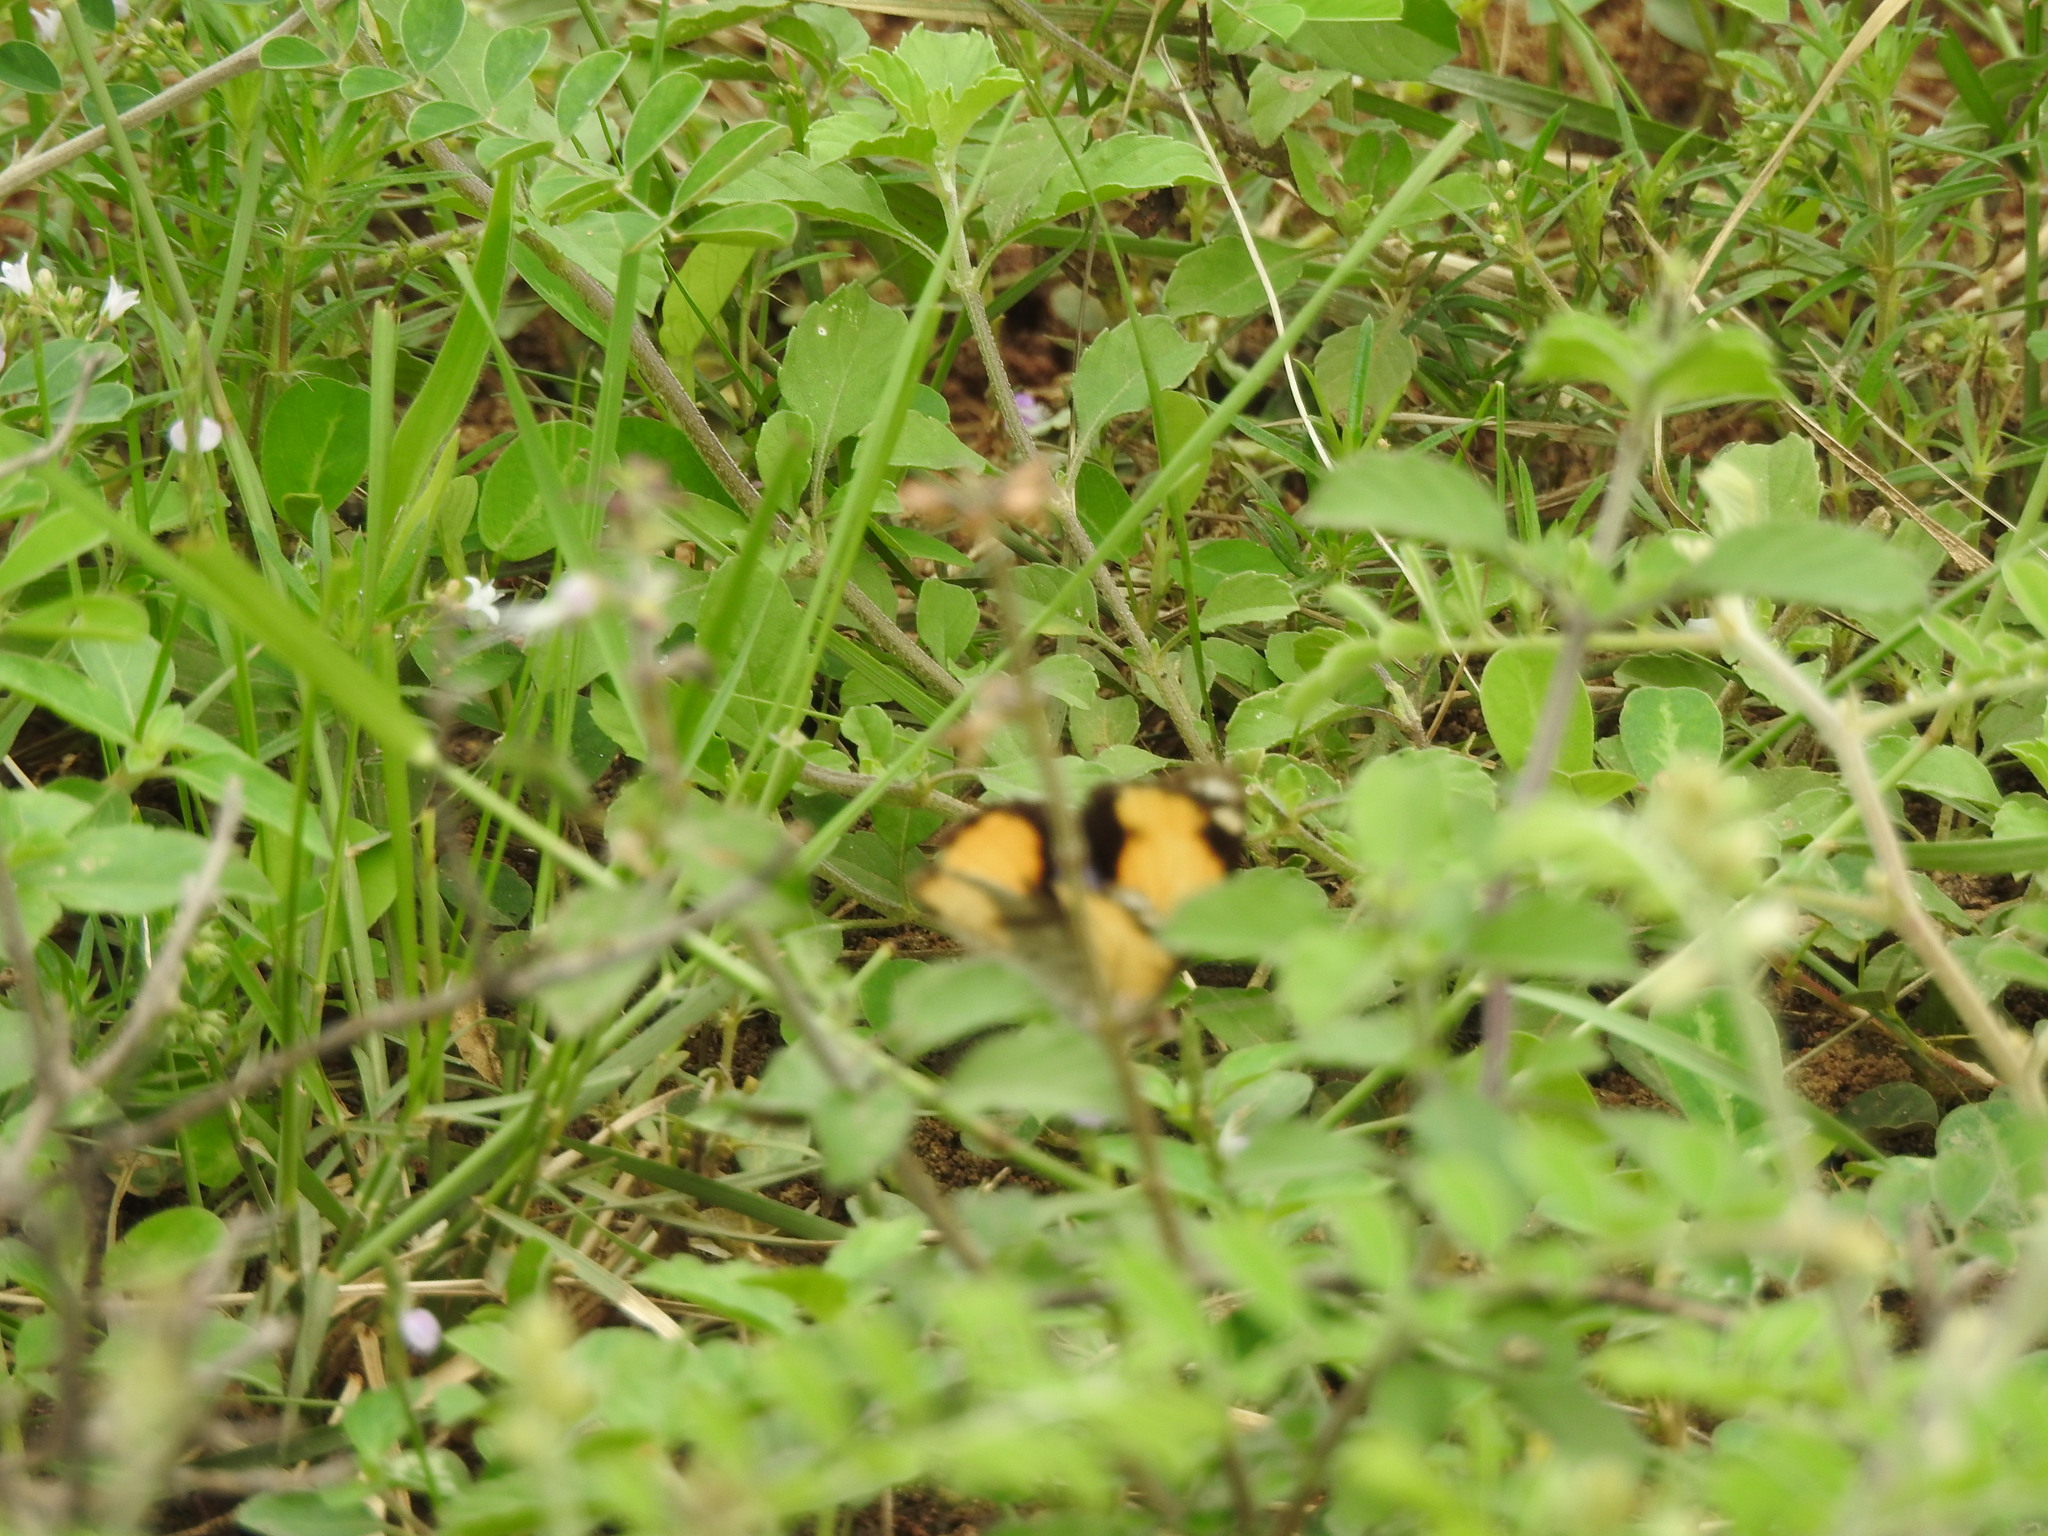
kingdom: Animalia
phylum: Arthropoda
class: Insecta
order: Lepidoptera
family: Nymphalidae
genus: Junonia
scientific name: Junonia hierta
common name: Yellow pansy
